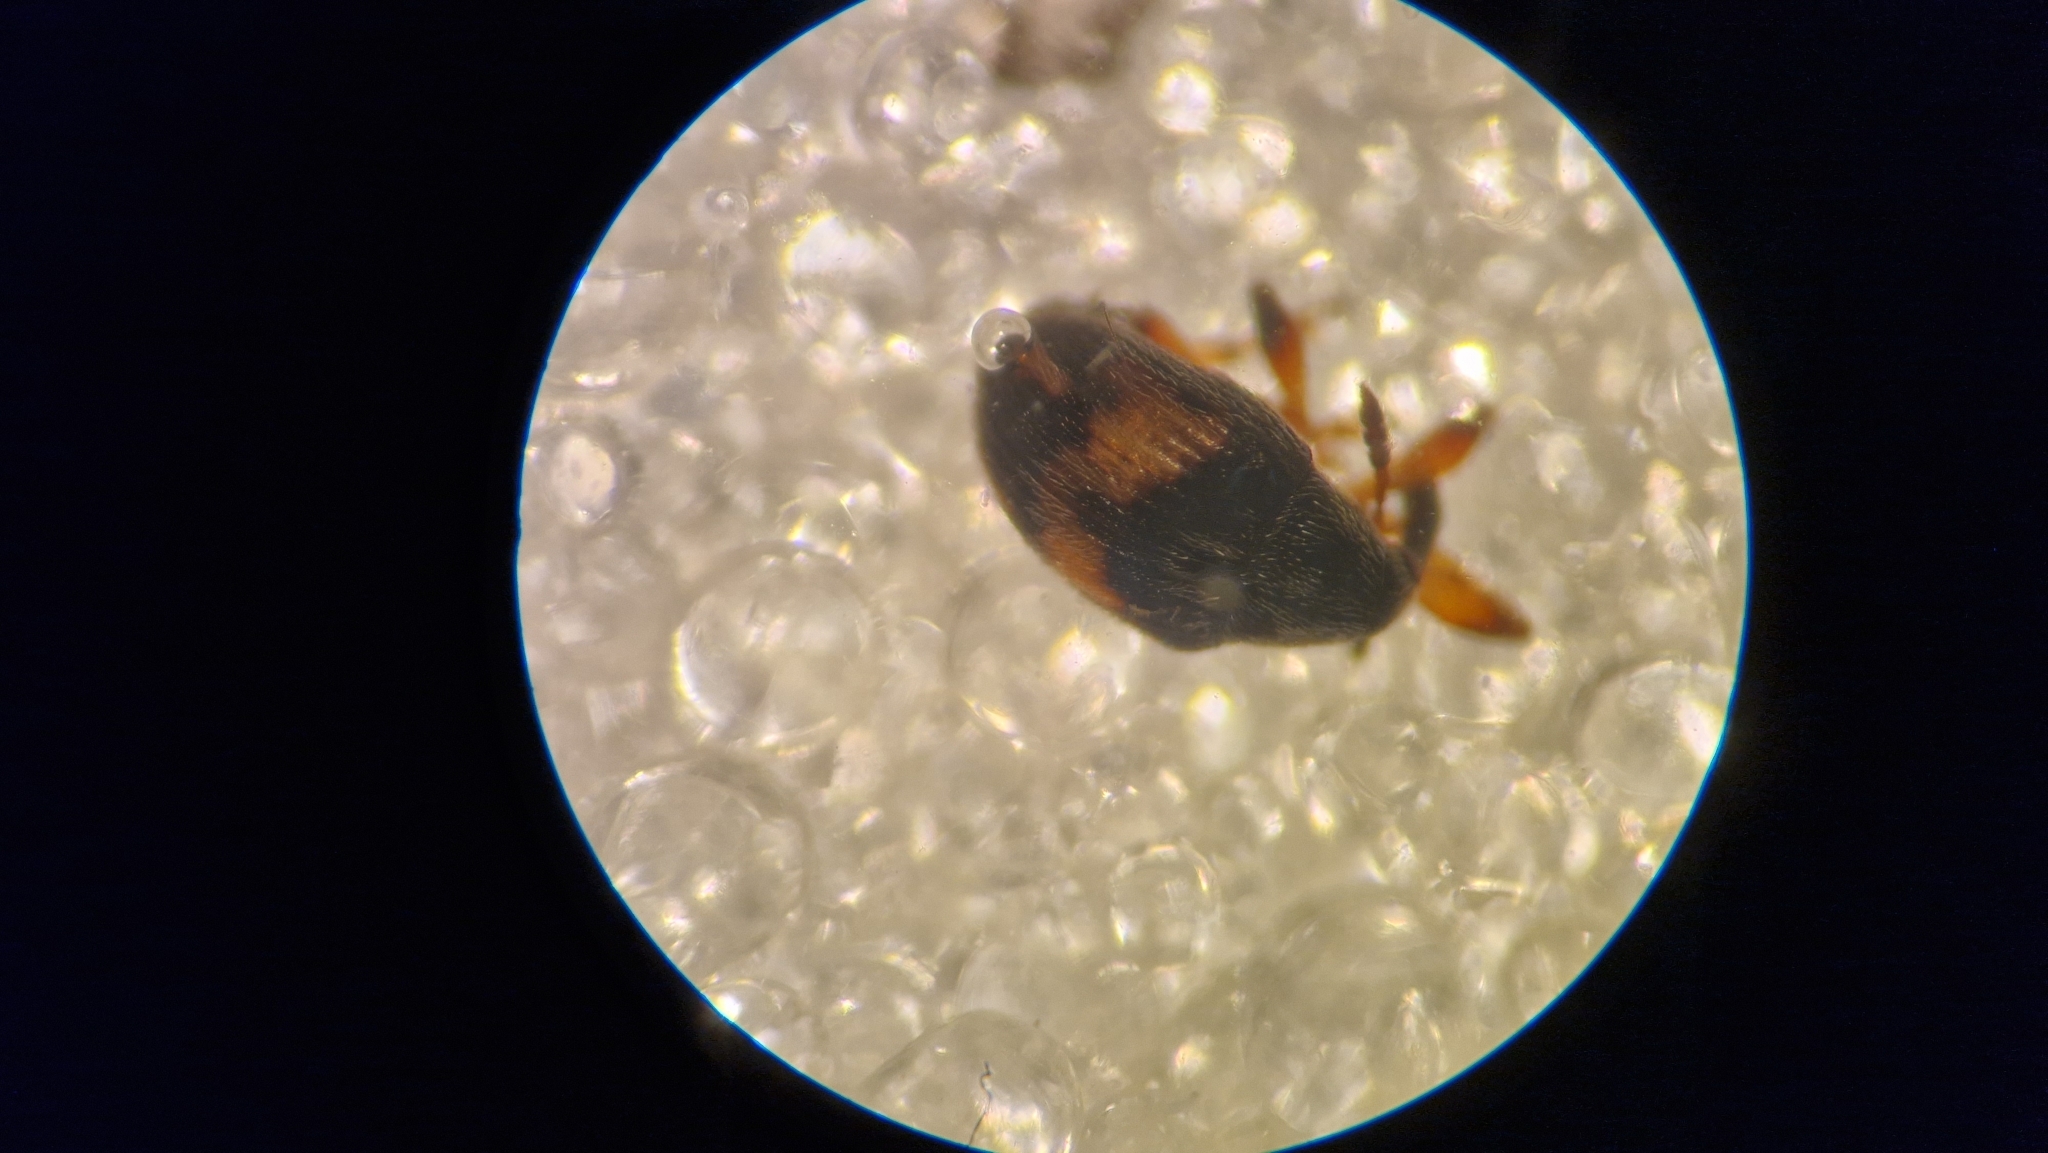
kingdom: Animalia
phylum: Arthropoda
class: Insecta
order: Coleoptera
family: Brentidae
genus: Nanophyes
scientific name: Nanophyes marmoratus
